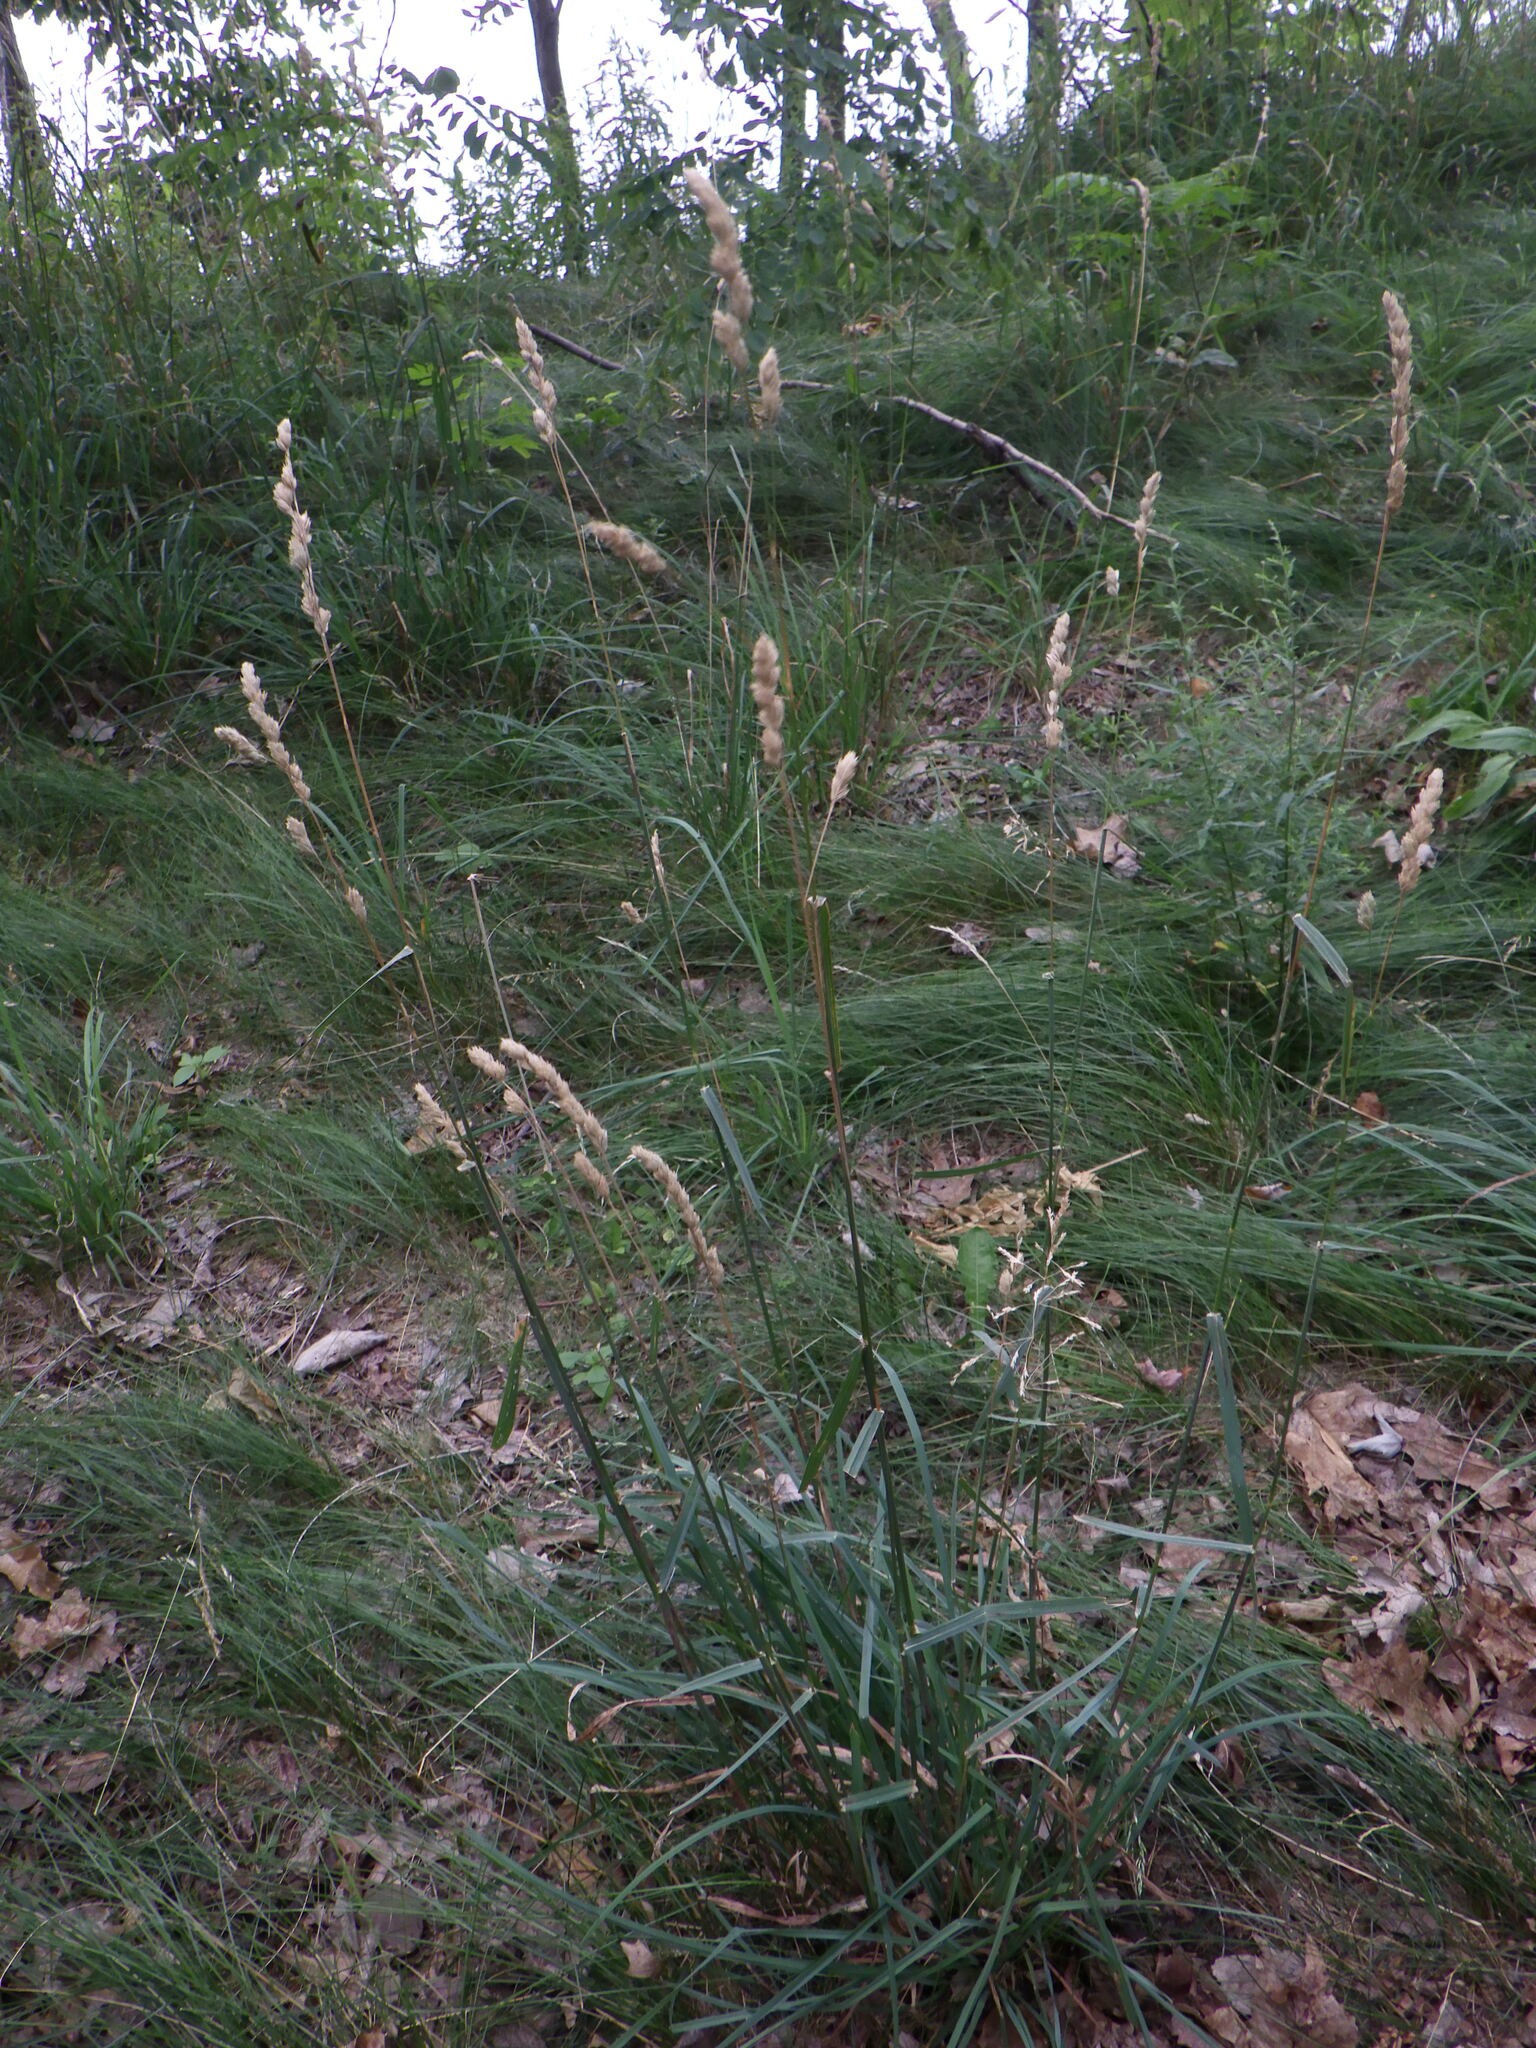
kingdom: Plantae
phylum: Tracheophyta
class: Liliopsida
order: Poales
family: Poaceae
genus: Dactylis
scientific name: Dactylis glomerata
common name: Orchardgrass
